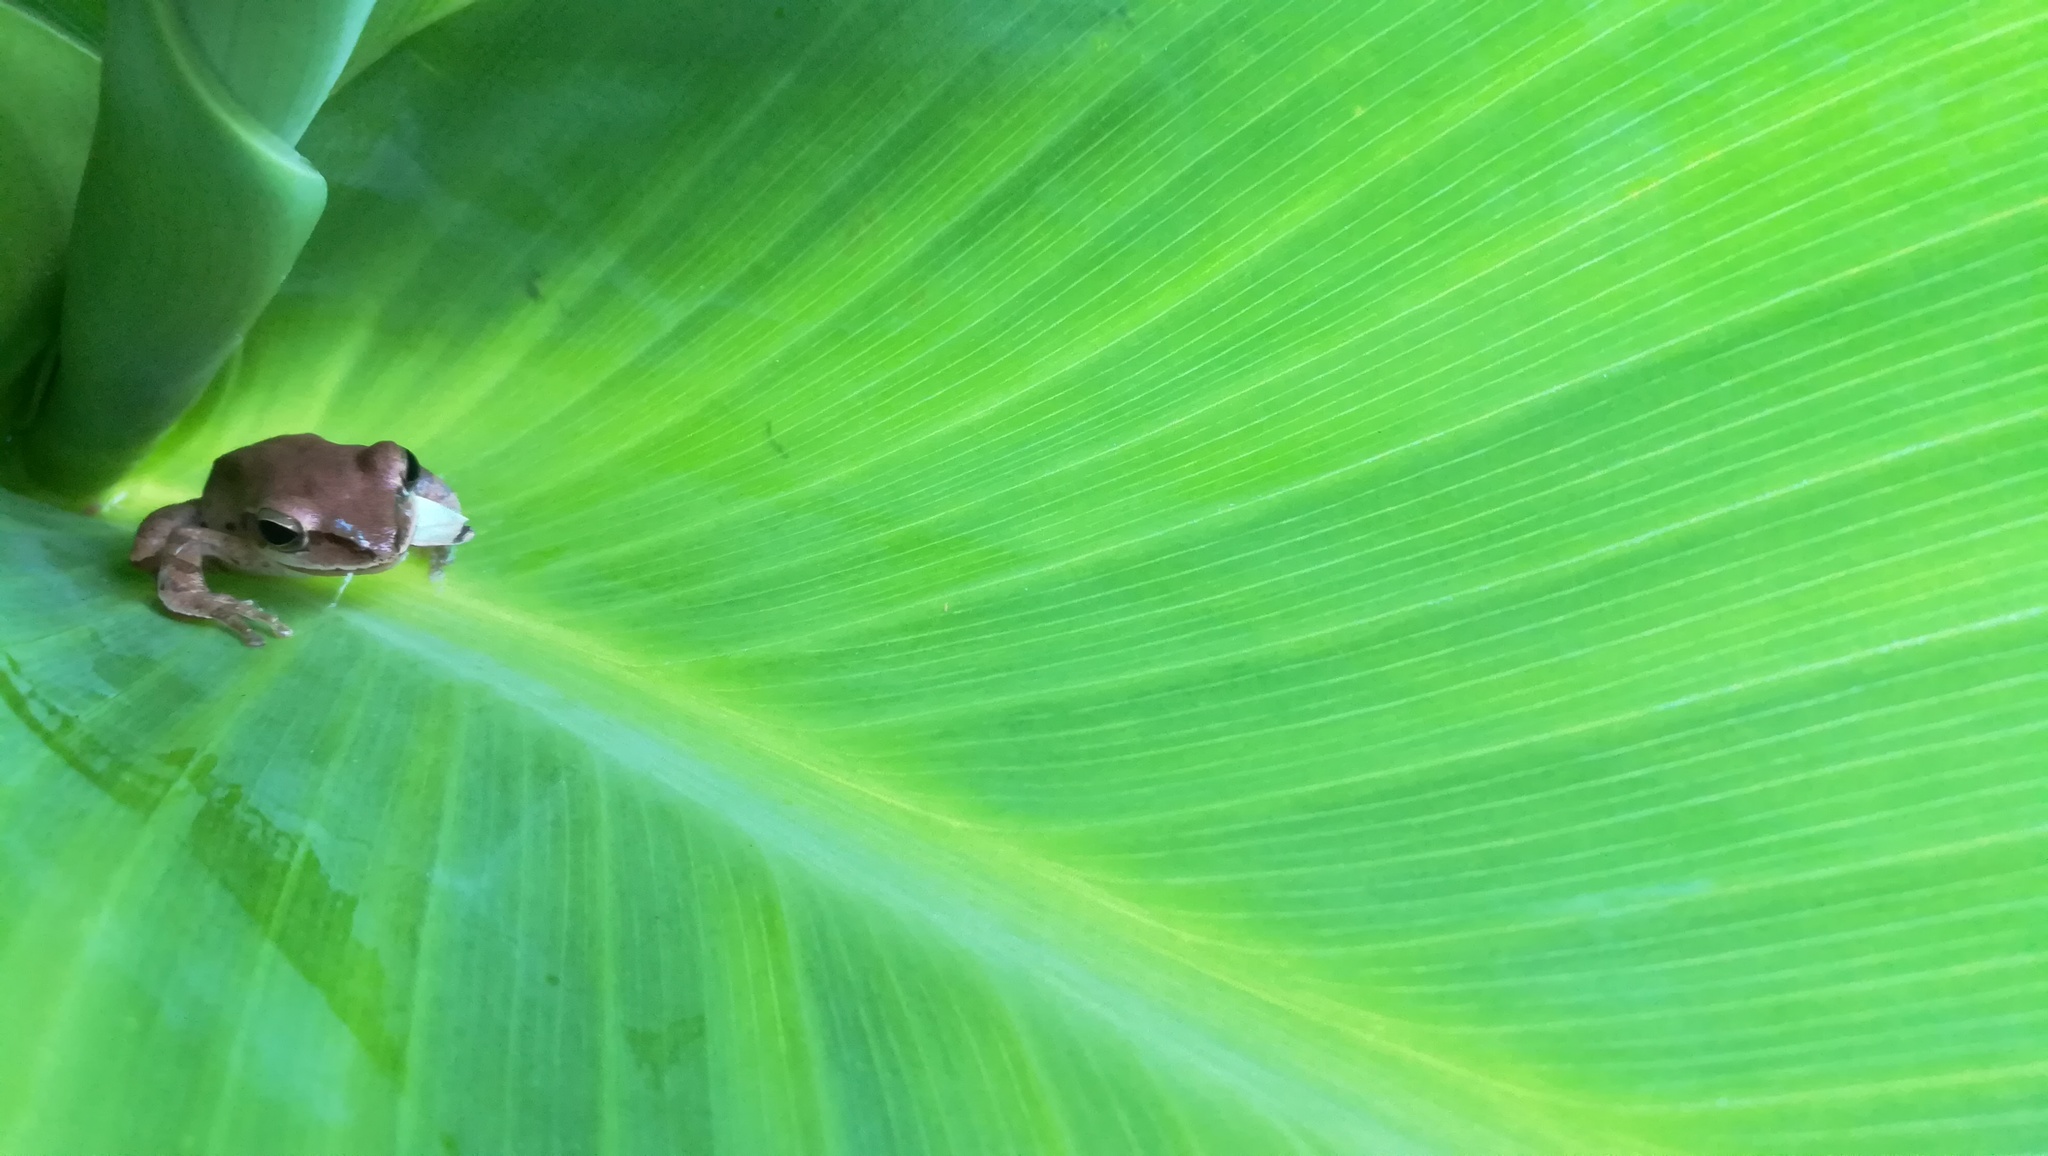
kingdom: Animalia
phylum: Chordata
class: Amphibia
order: Anura
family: Rhacophoridae
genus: Polypedates
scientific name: Polypedates maculatus
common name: Himalayan tree frog
